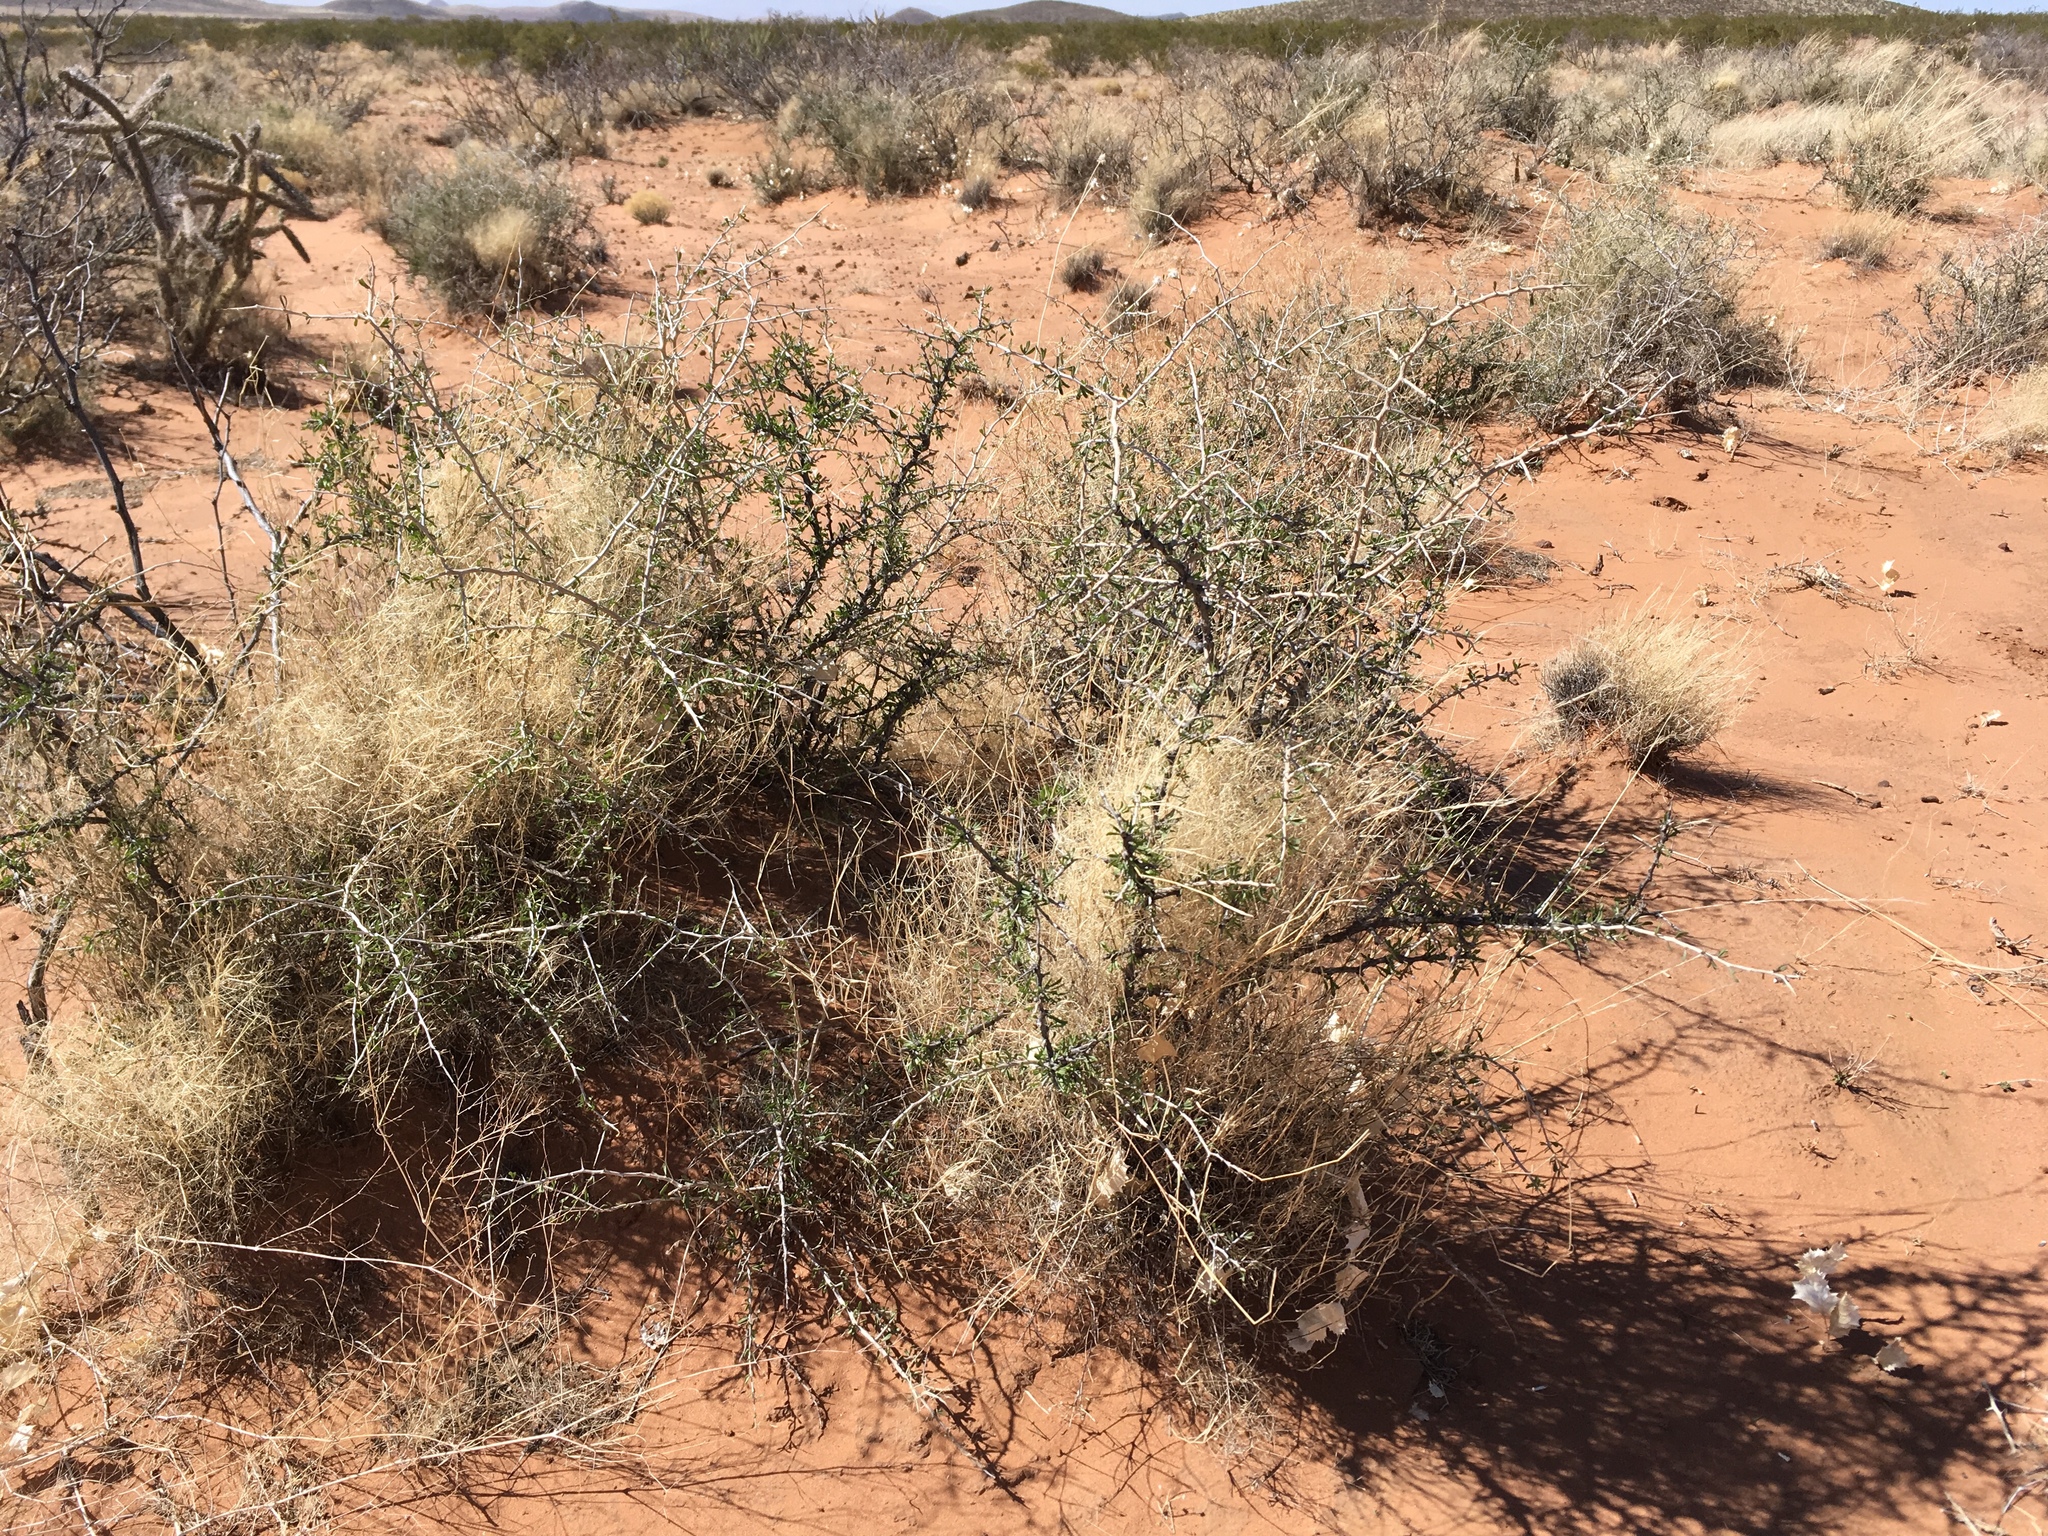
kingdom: Plantae
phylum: Tracheophyta
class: Magnoliopsida
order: Solanales
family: Solanaceae
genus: Lycium
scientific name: Lycium berlandieri
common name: Berlandier wolfberry
